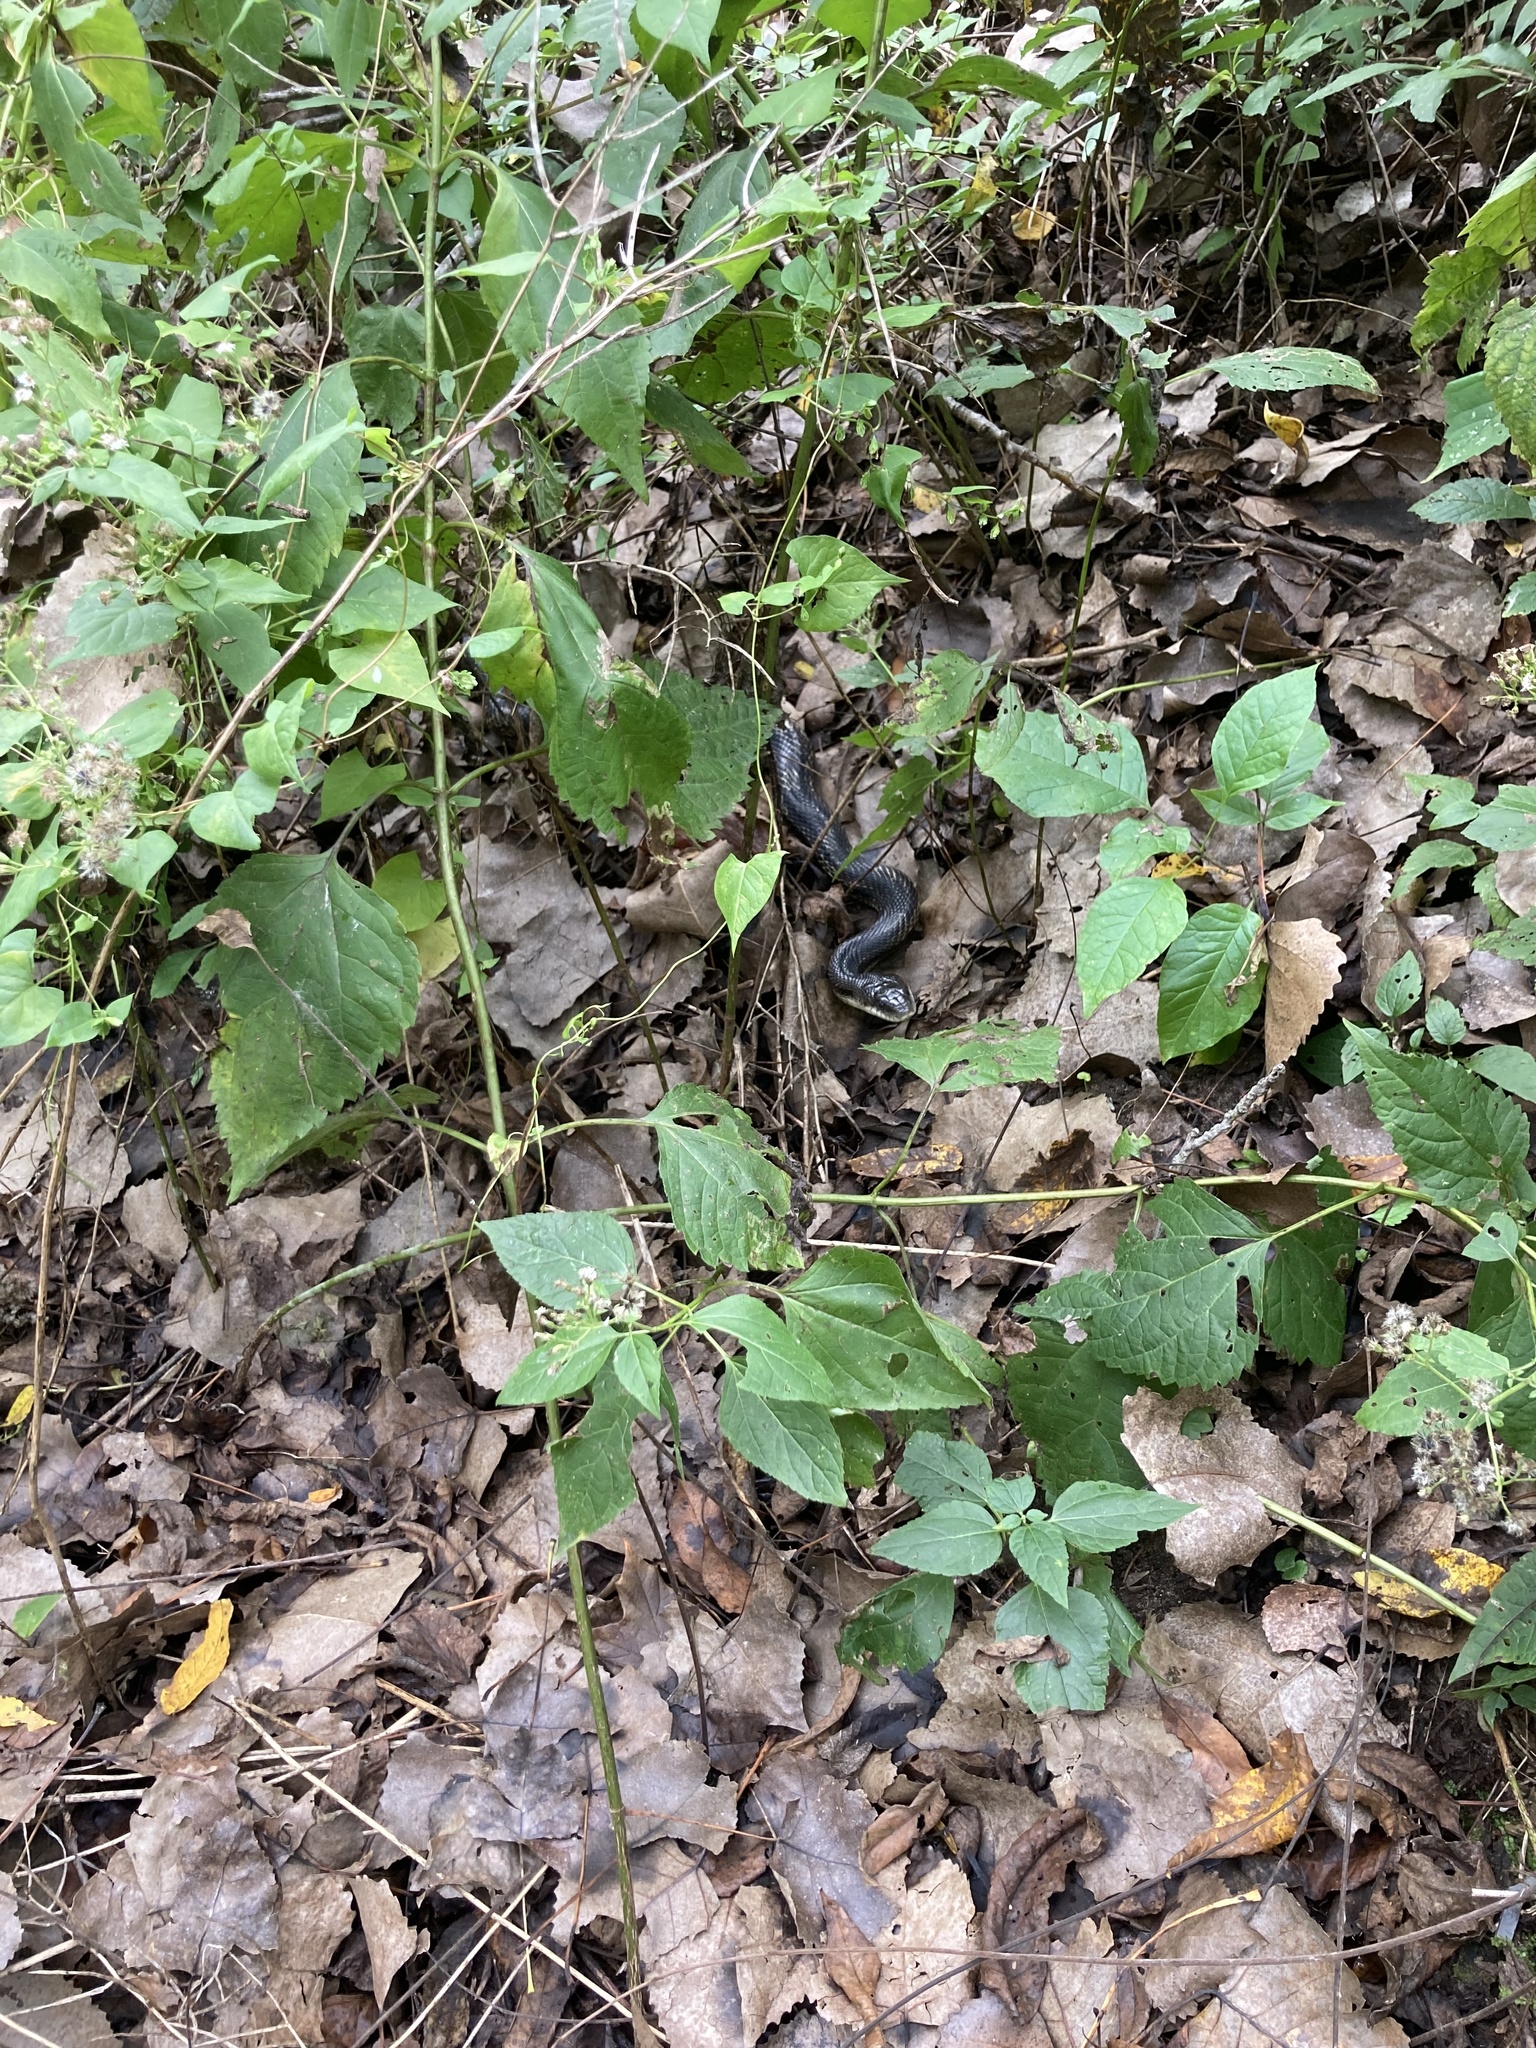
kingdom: Animalia
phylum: Chordata
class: Squamata
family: Colubridae
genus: Pantherophis
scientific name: Pantherophis spiloides
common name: Gray rat snake
